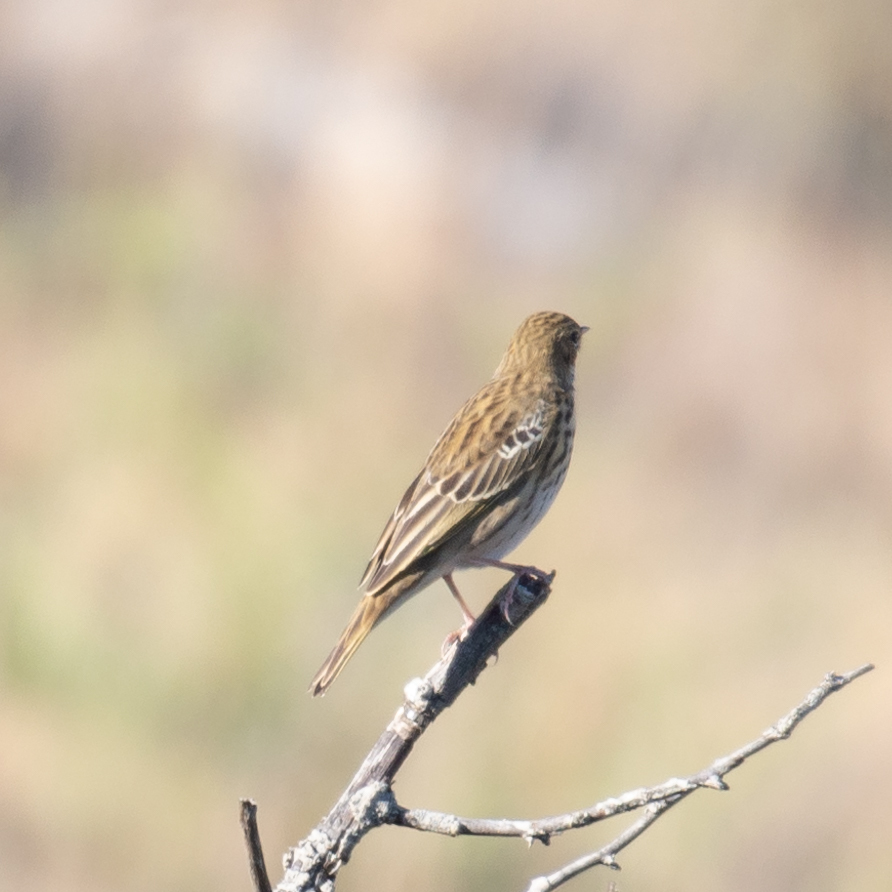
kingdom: Animalia
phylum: Chordata
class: Aves
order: Passeriformes
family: Motacillidae
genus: Anthus
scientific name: Anthus trivialis
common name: Tree pipit
